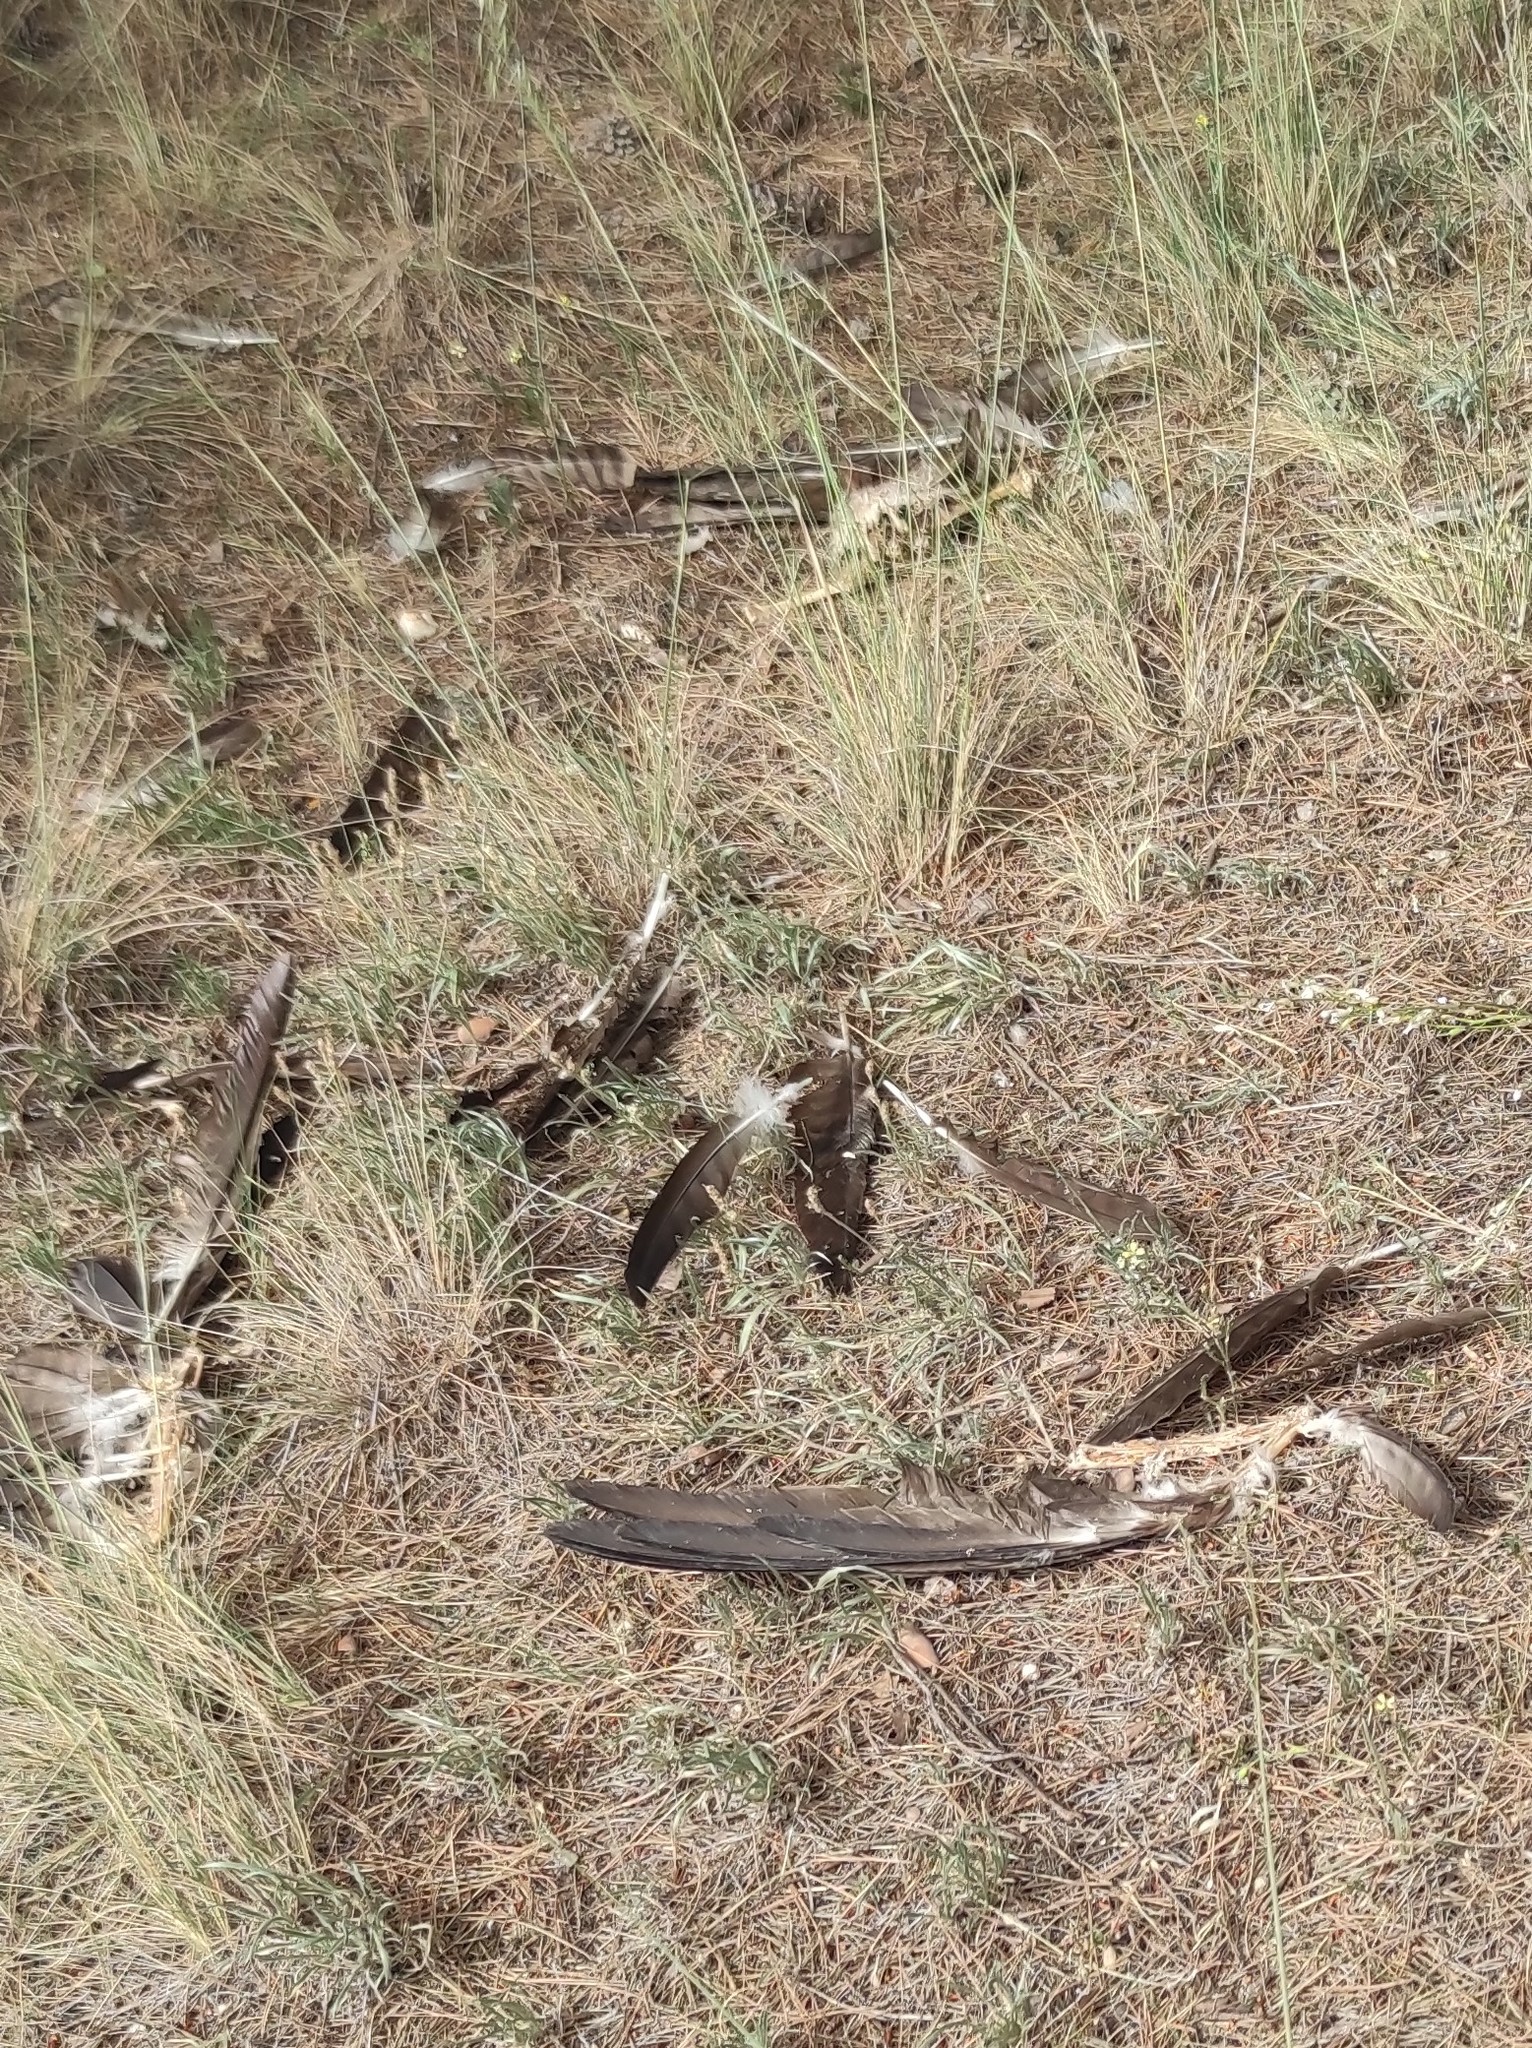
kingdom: Animalia
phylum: Chordata
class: Aves
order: Accipitriformes
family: Accipitridae
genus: Milvus
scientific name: Milvus migrans
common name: Black kite
